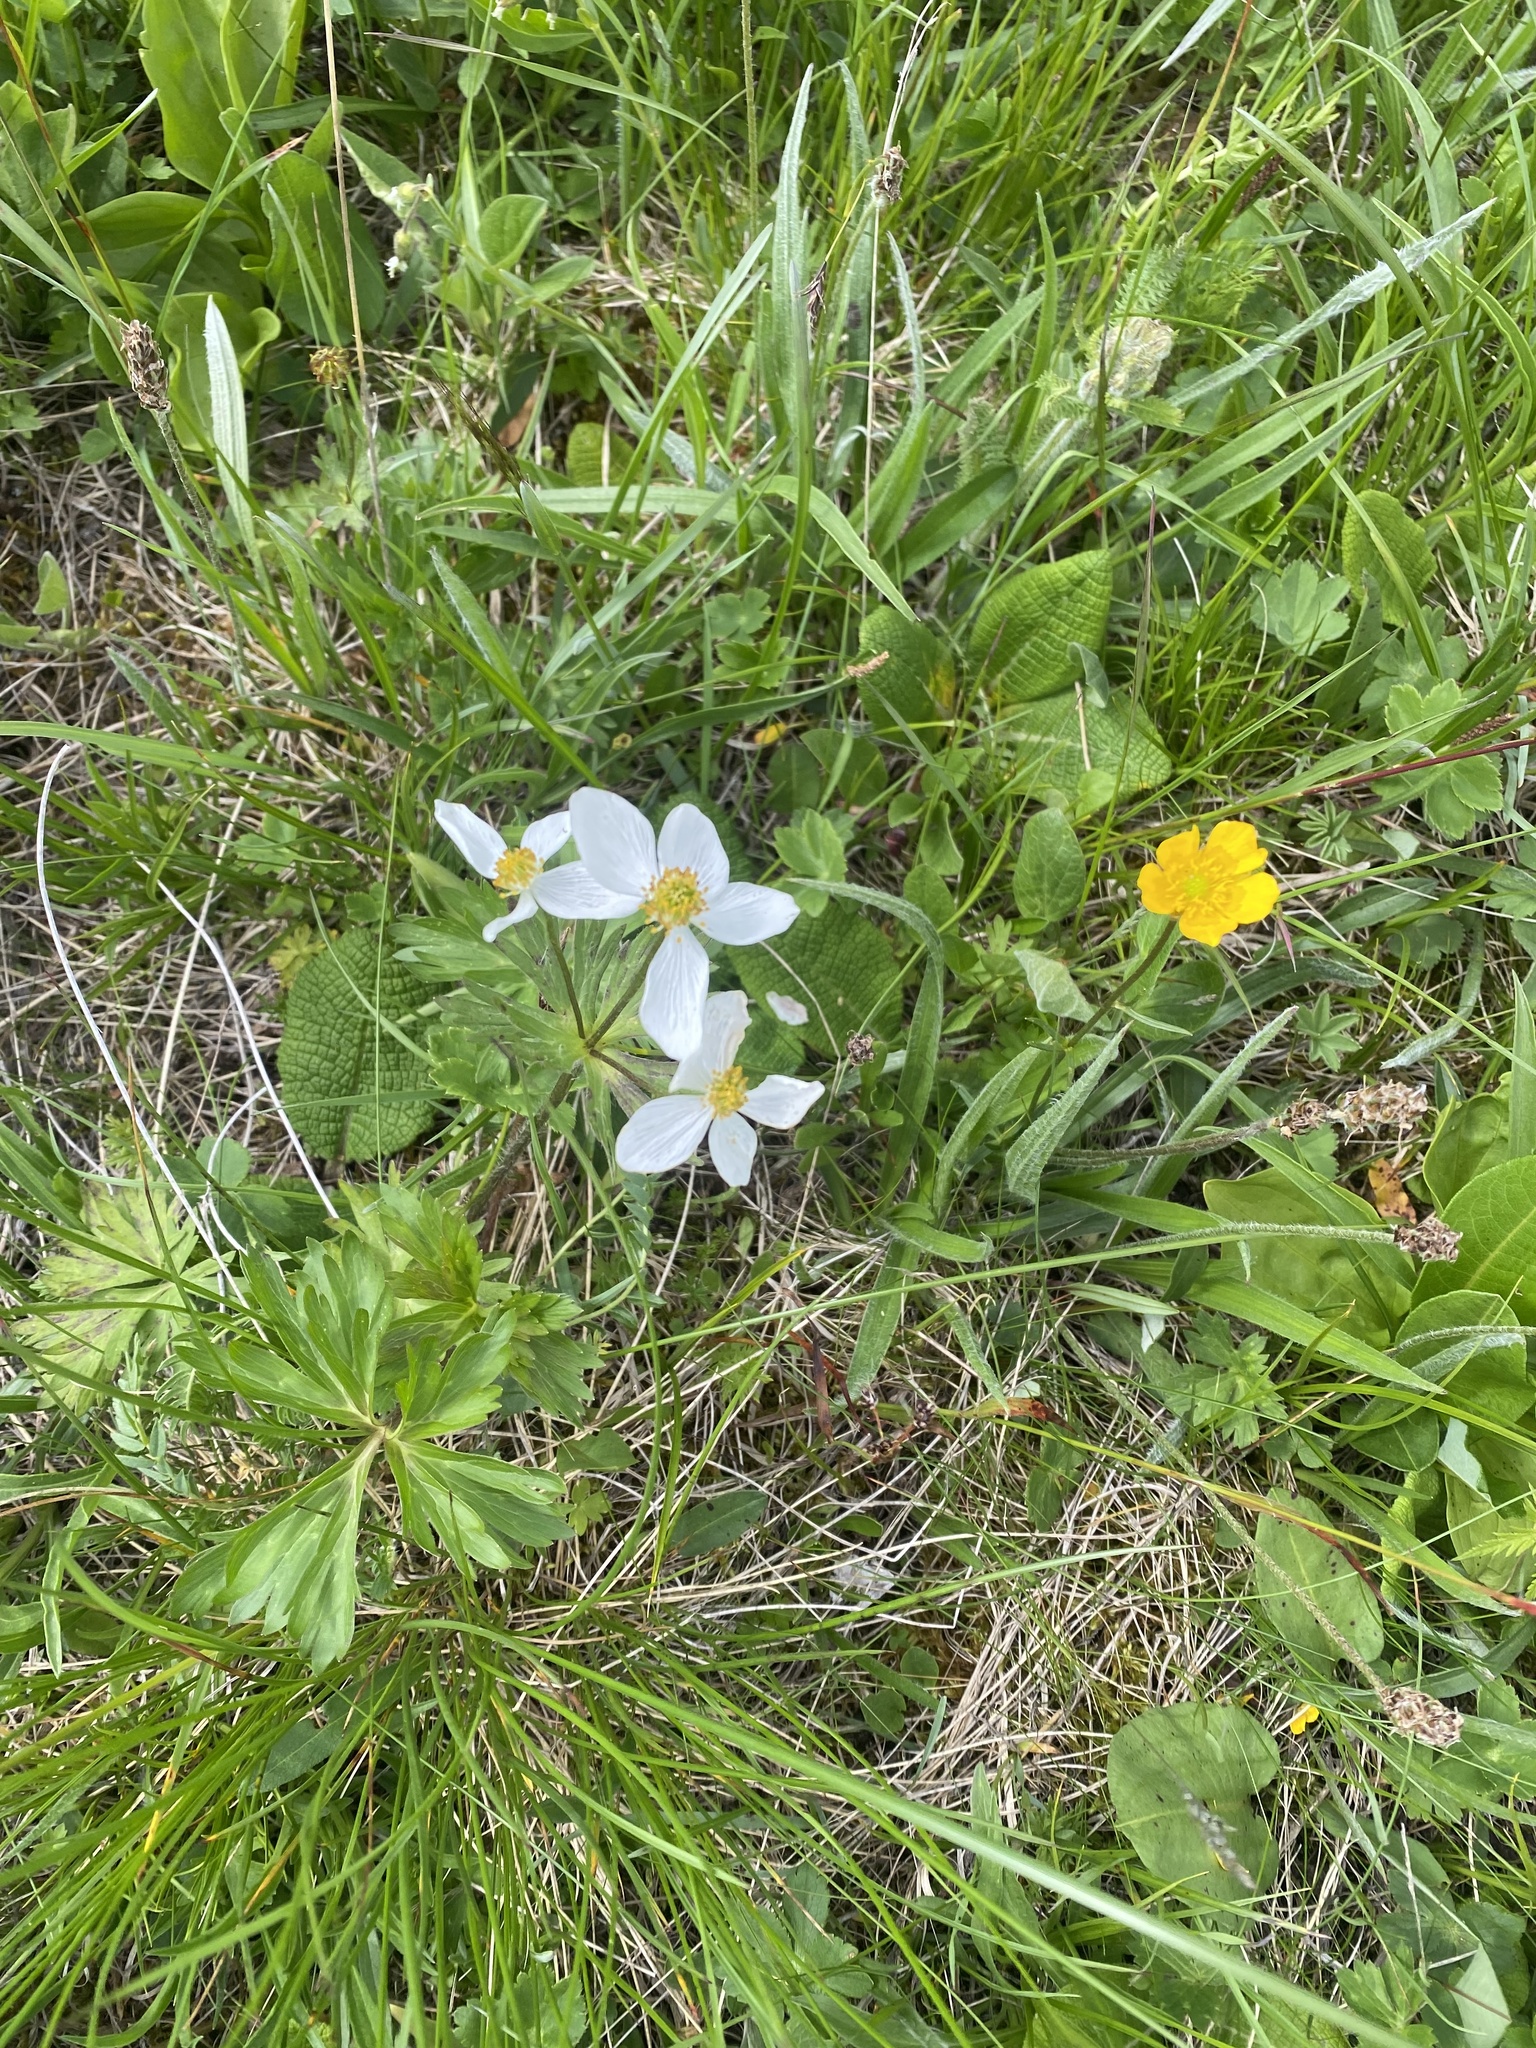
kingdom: Plantae
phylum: Tracheophyta
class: Magnoliopsida
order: Ranunculales
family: Ranunculaceae
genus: Anemonastrum
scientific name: Anemonastrum narcissiflorum
